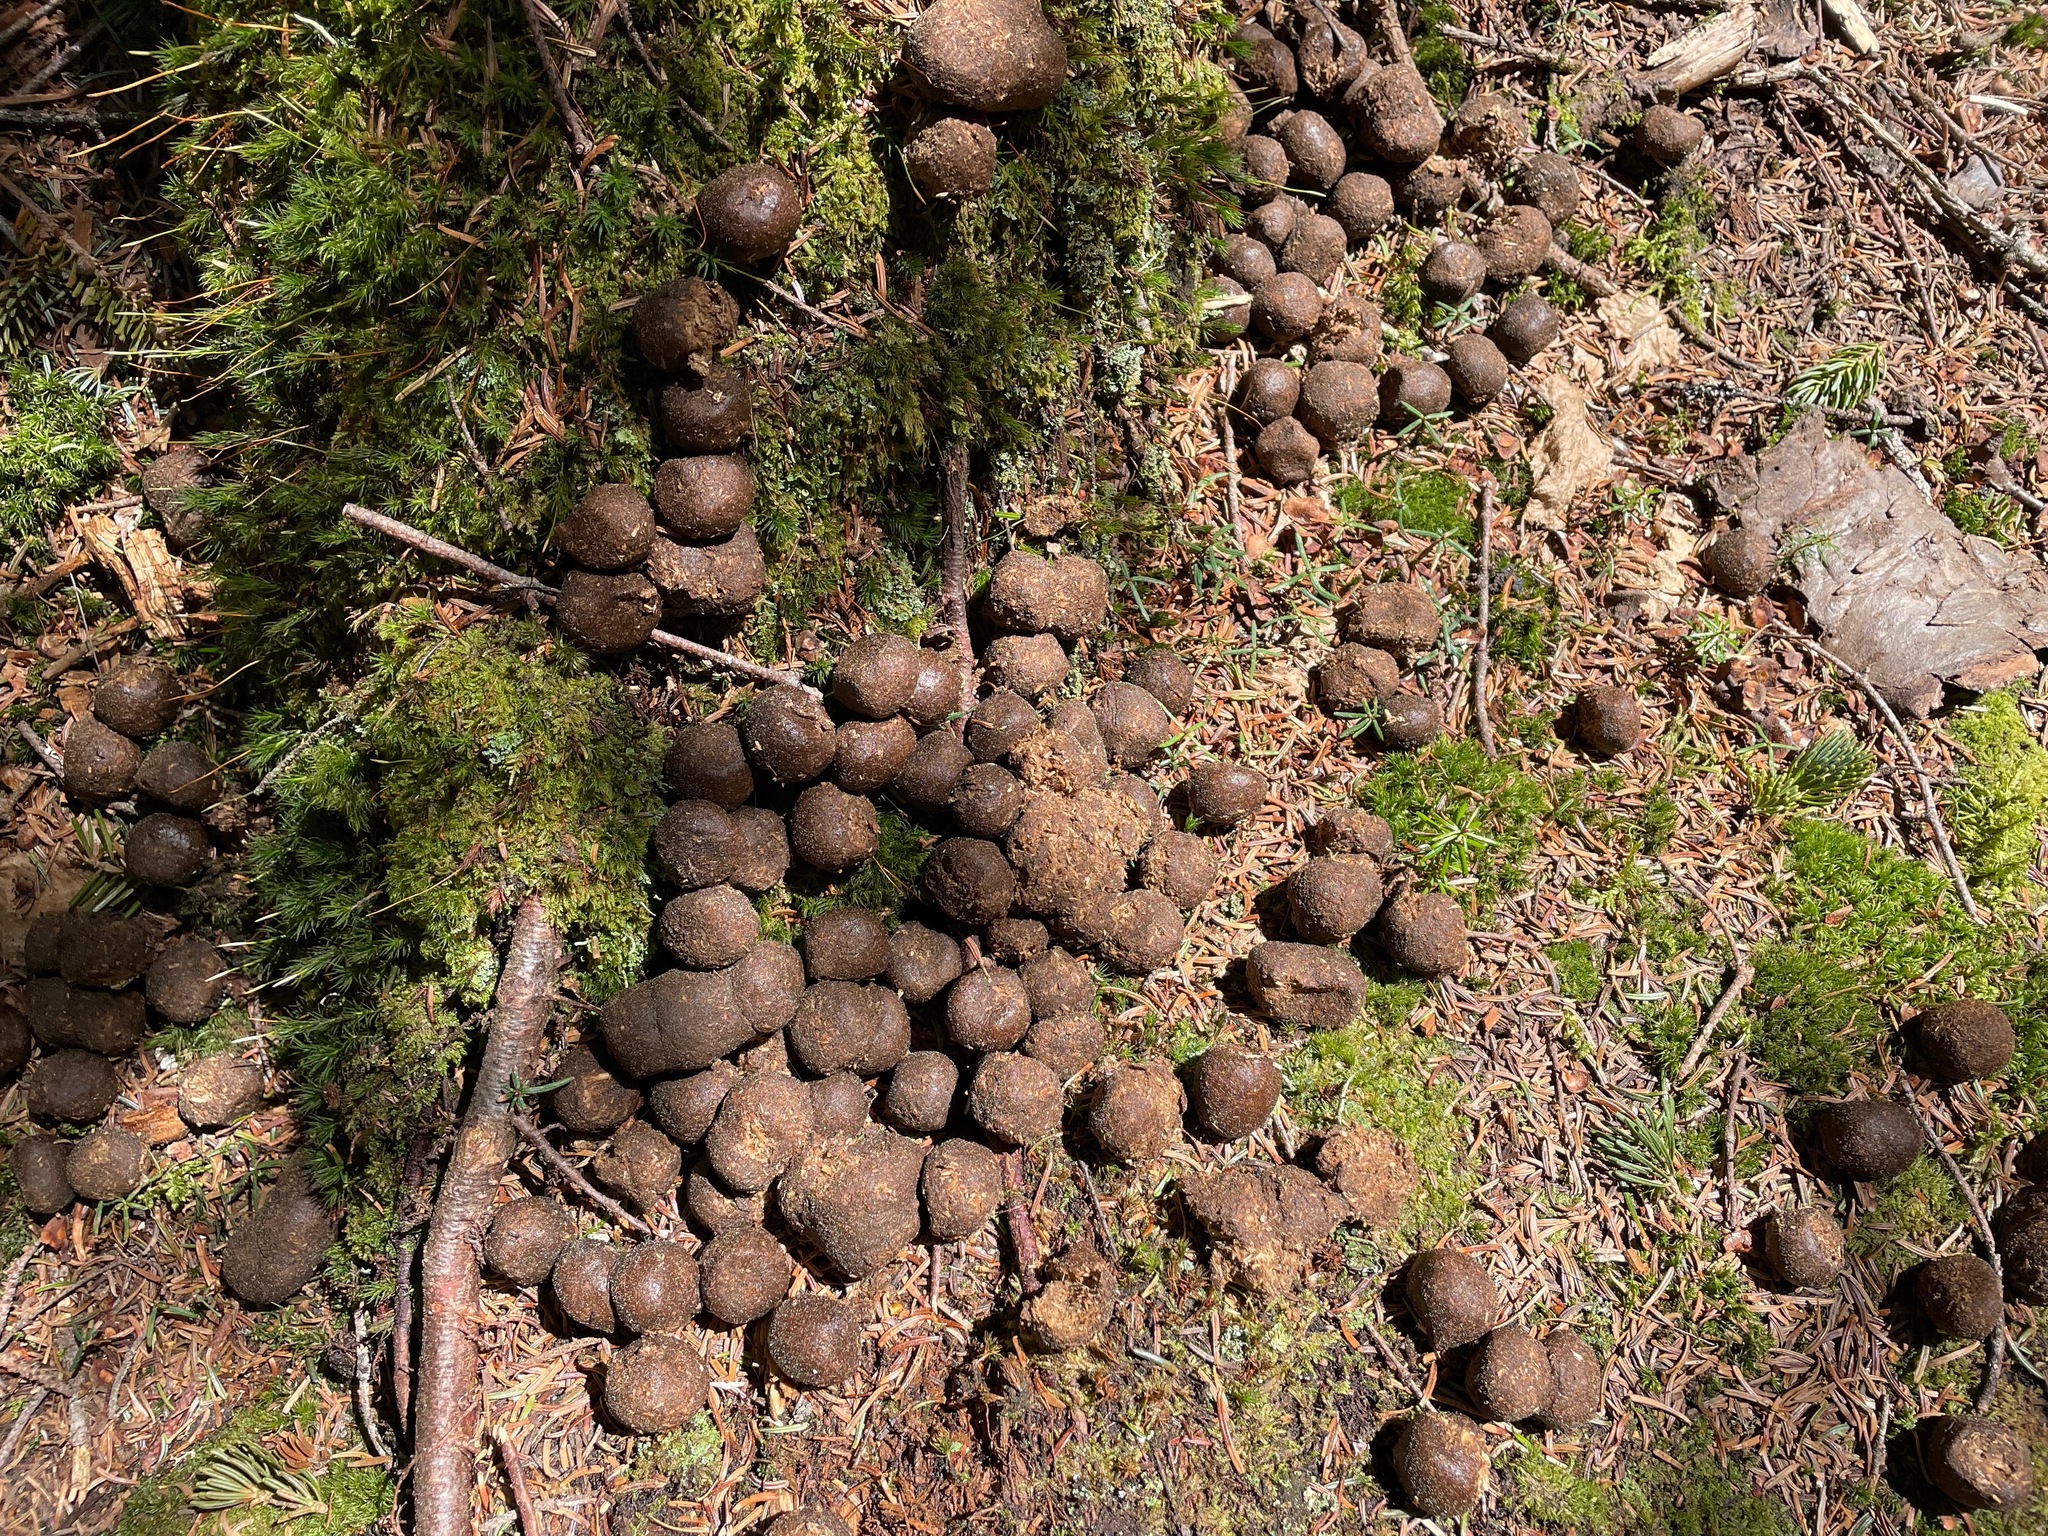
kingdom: Animalia
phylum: Chordata
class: Mammalia
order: Artiodactyla
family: Cervidae
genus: Alces
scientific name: Alces alces
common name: Moose
